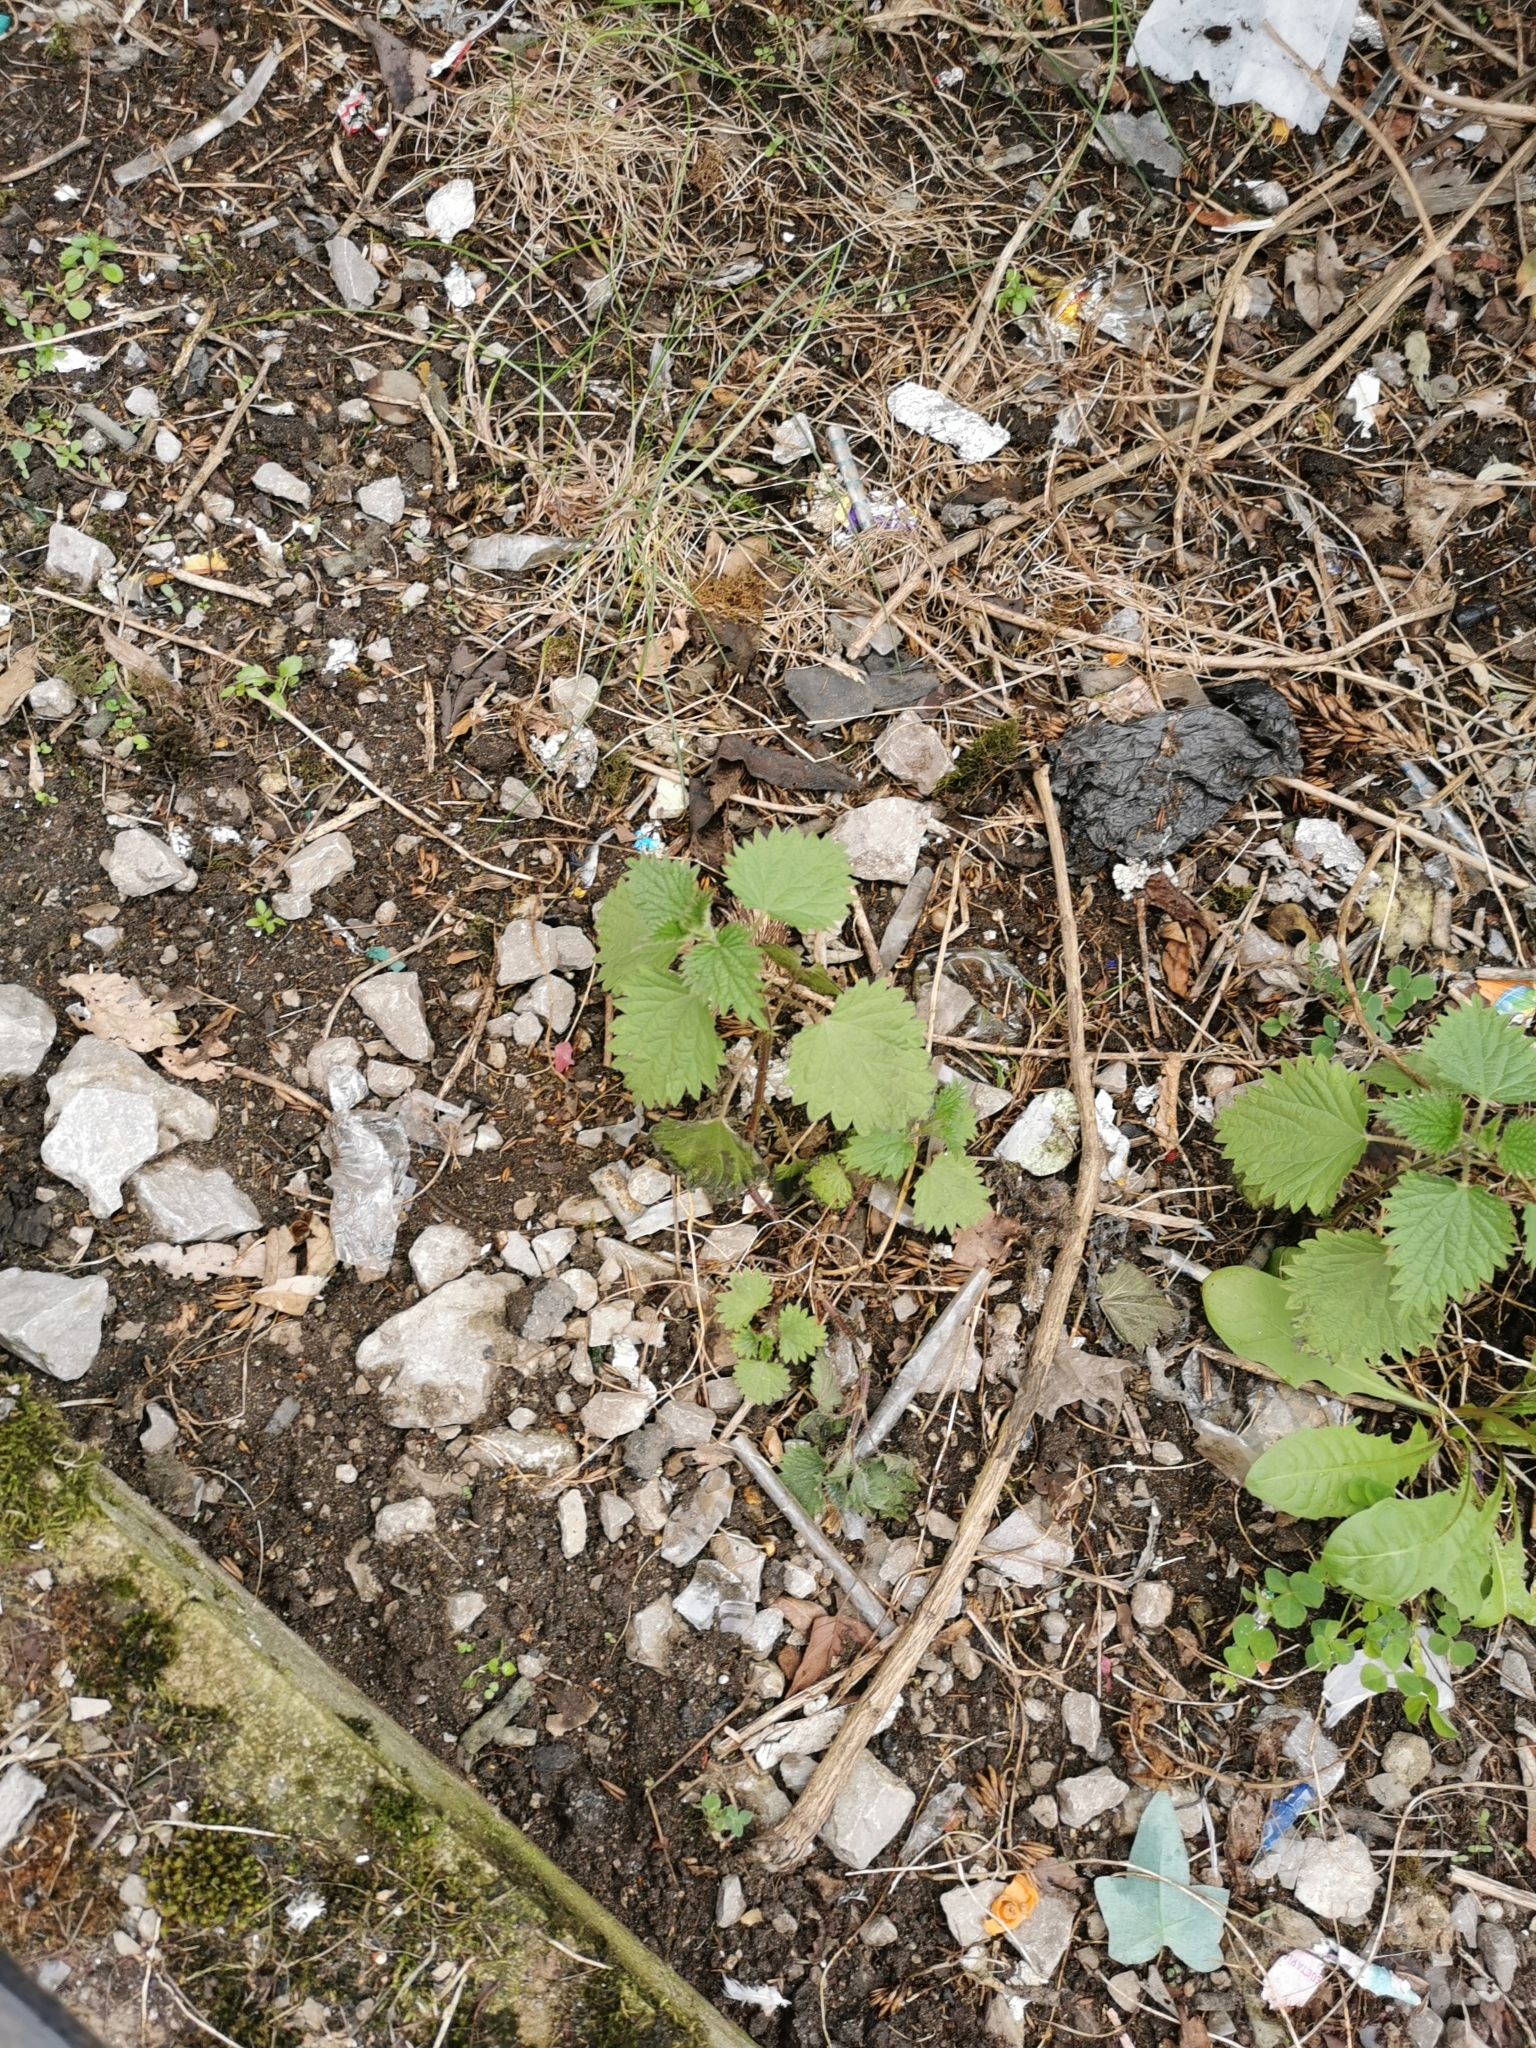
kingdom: Plantae
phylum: Tracheophyta
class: Magnoliopsida
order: Rosales
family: Urticaceae
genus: Urtica
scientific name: Urtica dioica
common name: Common nettle
